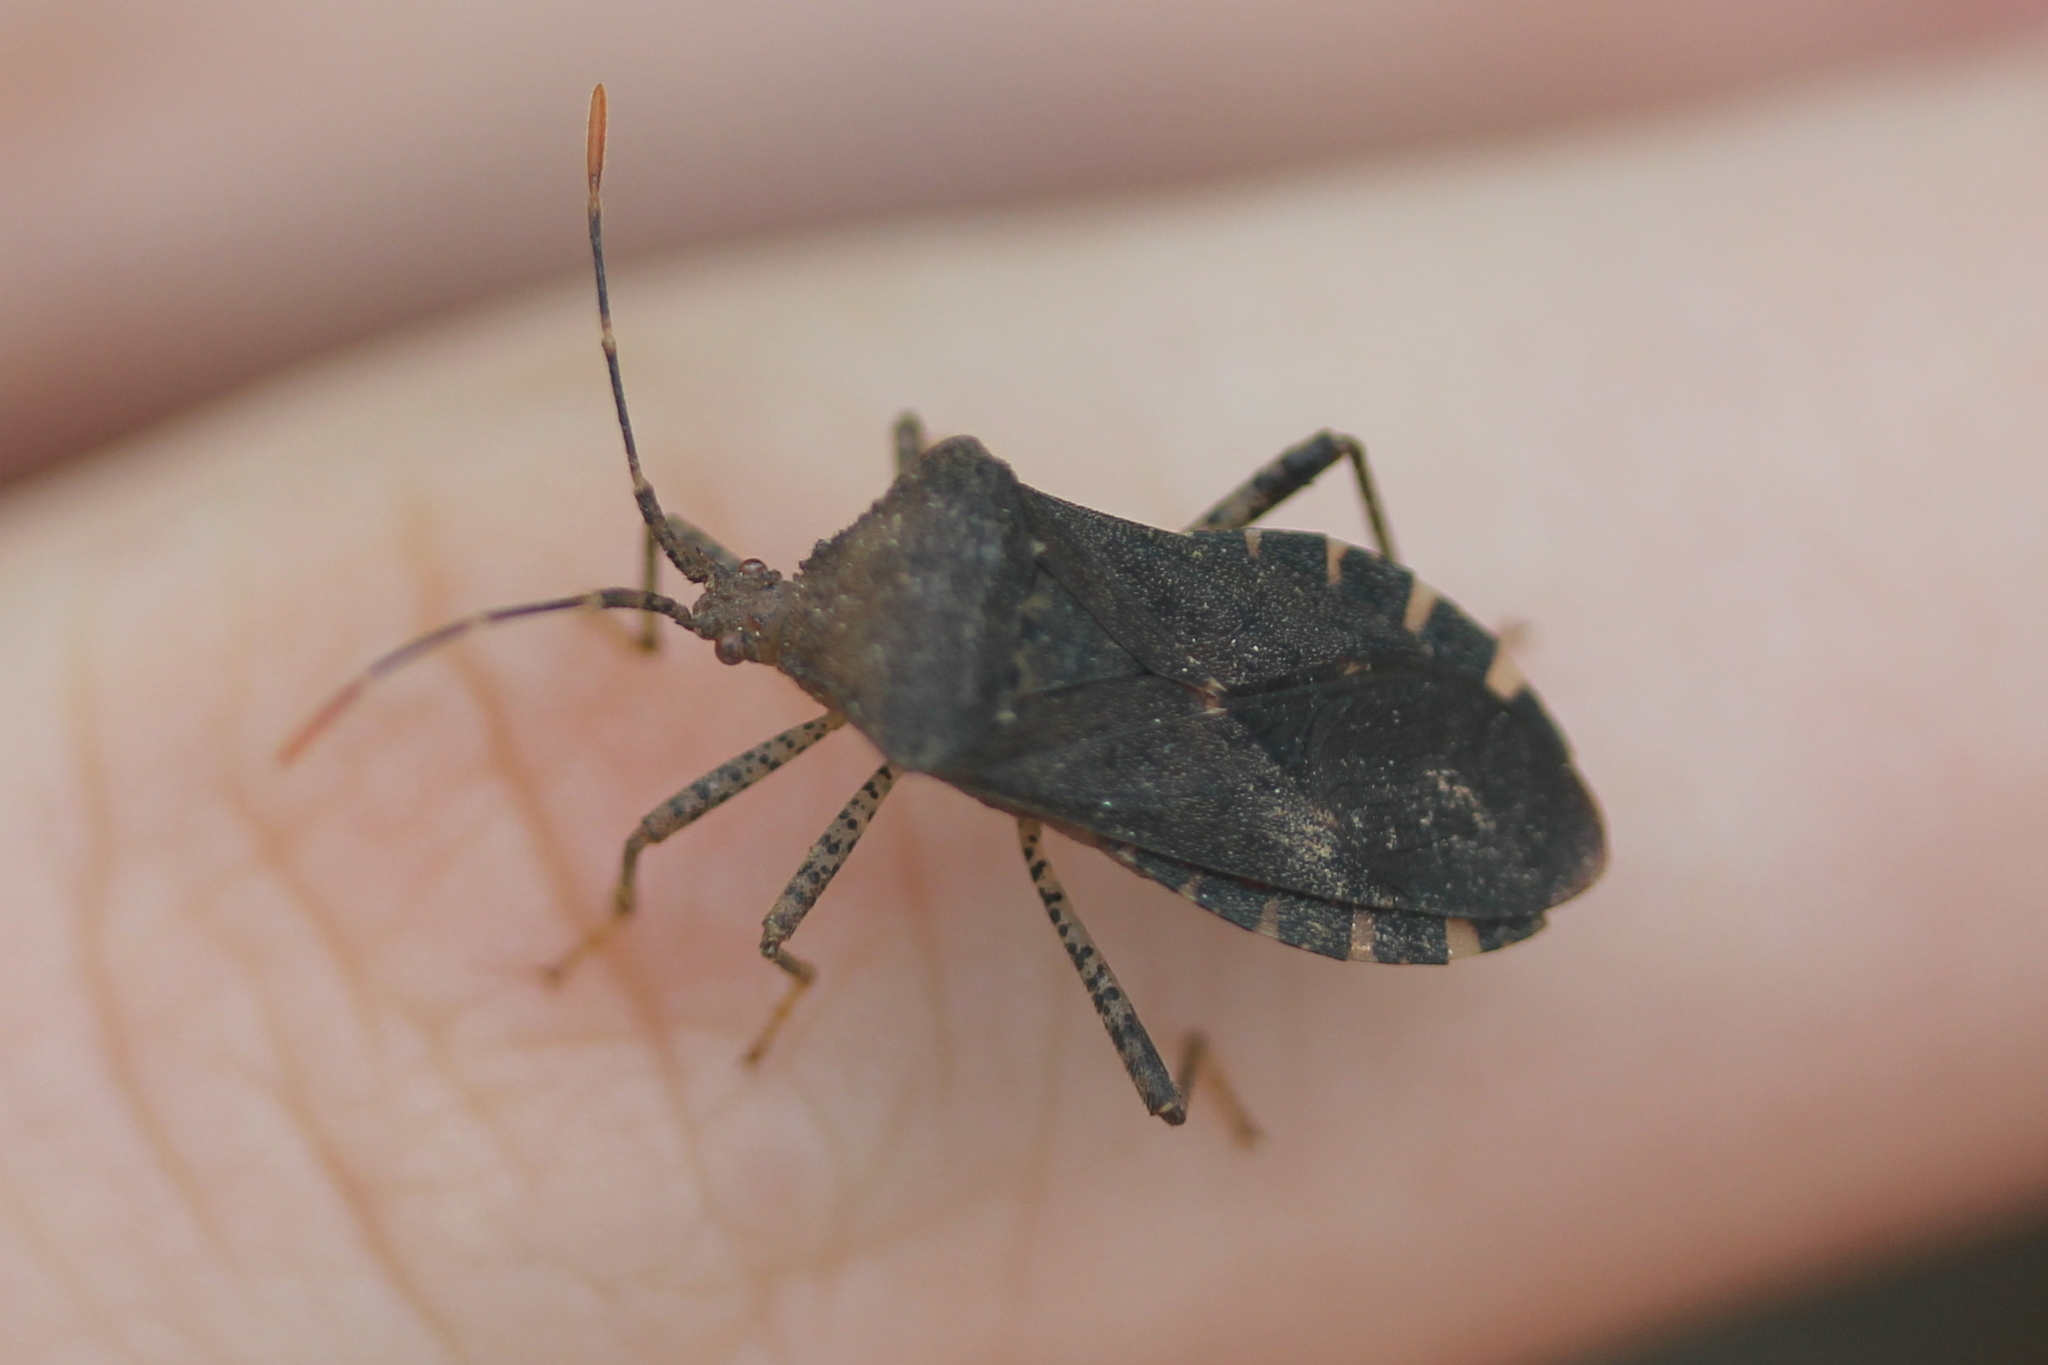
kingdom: Animalia
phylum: Arthropoda
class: Insecta
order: Hemiptera
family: Coreidae
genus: Anasa
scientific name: Anasa armigera
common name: Horned squash bug
